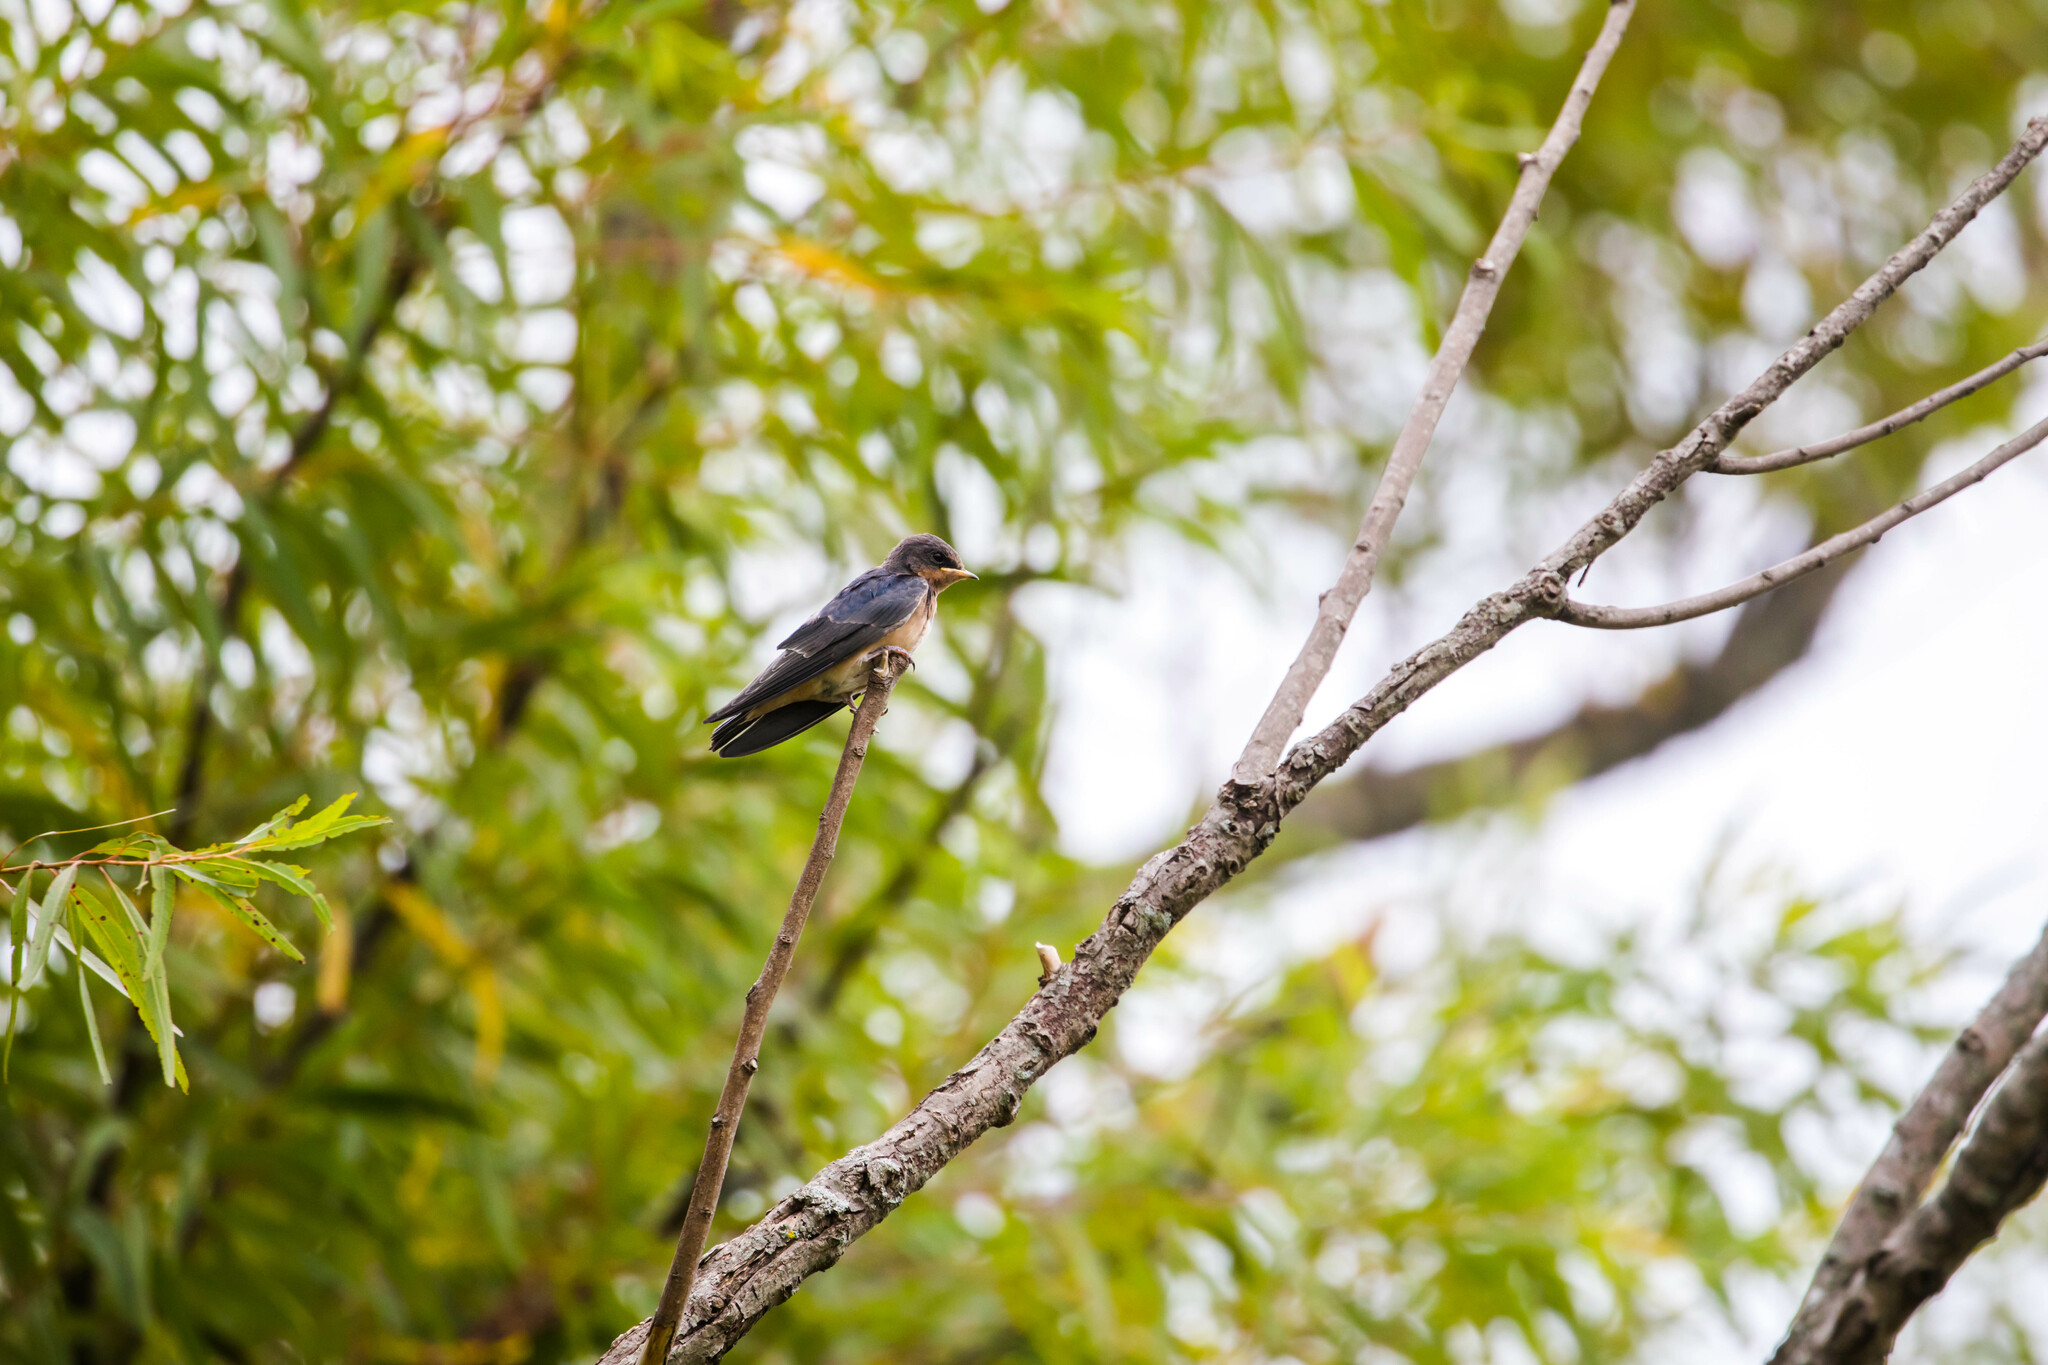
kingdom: Animalia
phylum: Chordata
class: Aves
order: Passeriformes
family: Hirundinidae
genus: Hirundo
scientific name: Hirundo rustica
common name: Barn swallow
